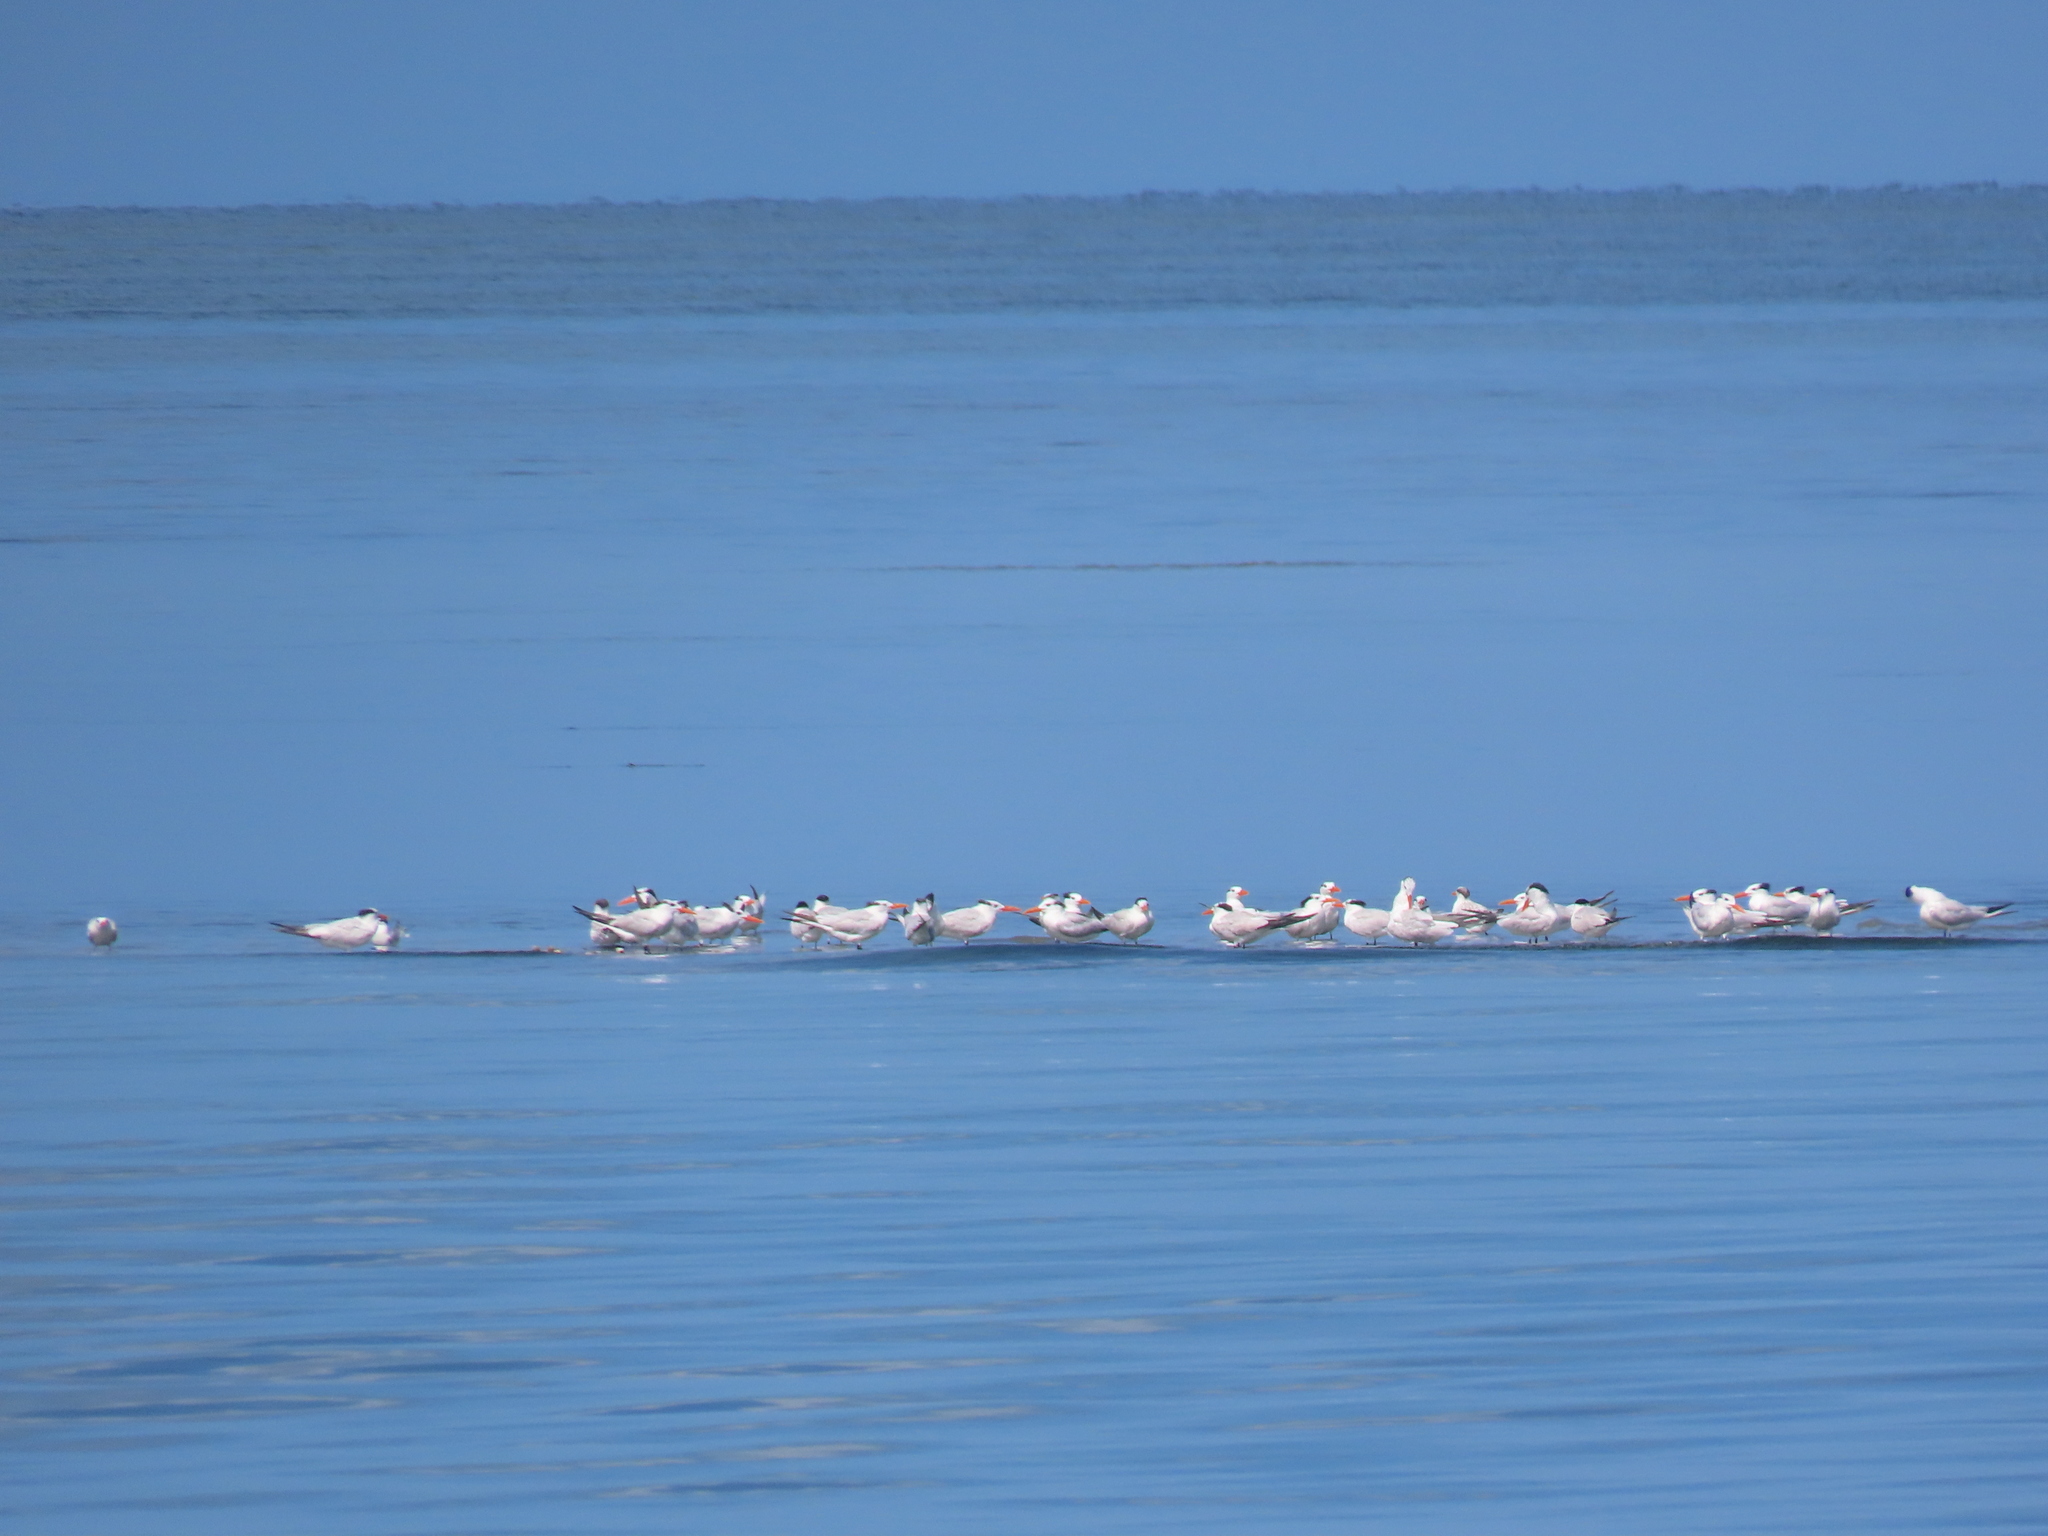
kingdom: Animalia
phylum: Chordata
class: Aves
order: Charadriiformes
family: Laridae
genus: Thalasseus
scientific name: Thalasseus maximus
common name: Royal tern
